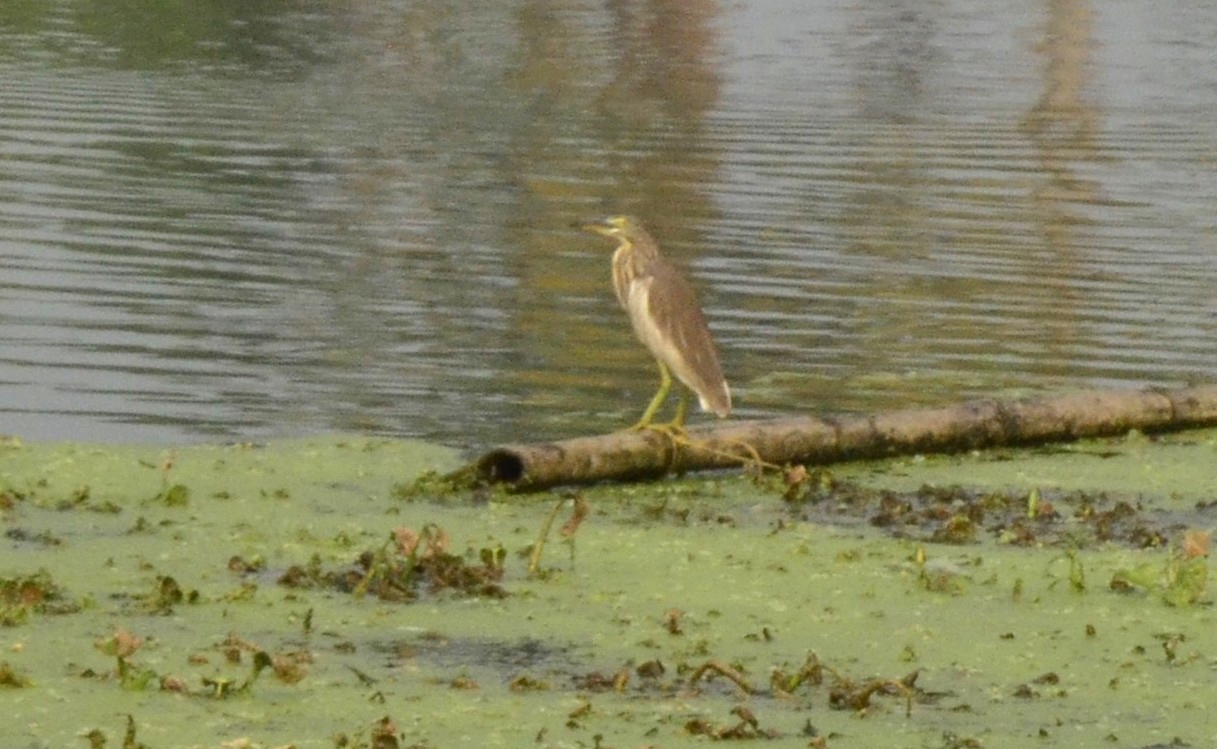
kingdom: Animalia
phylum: Chordata
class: Aves
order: Pelecaniformes
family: Ardeidae
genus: Ardeola
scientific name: Ardeola grayii
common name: Indian pond heron
